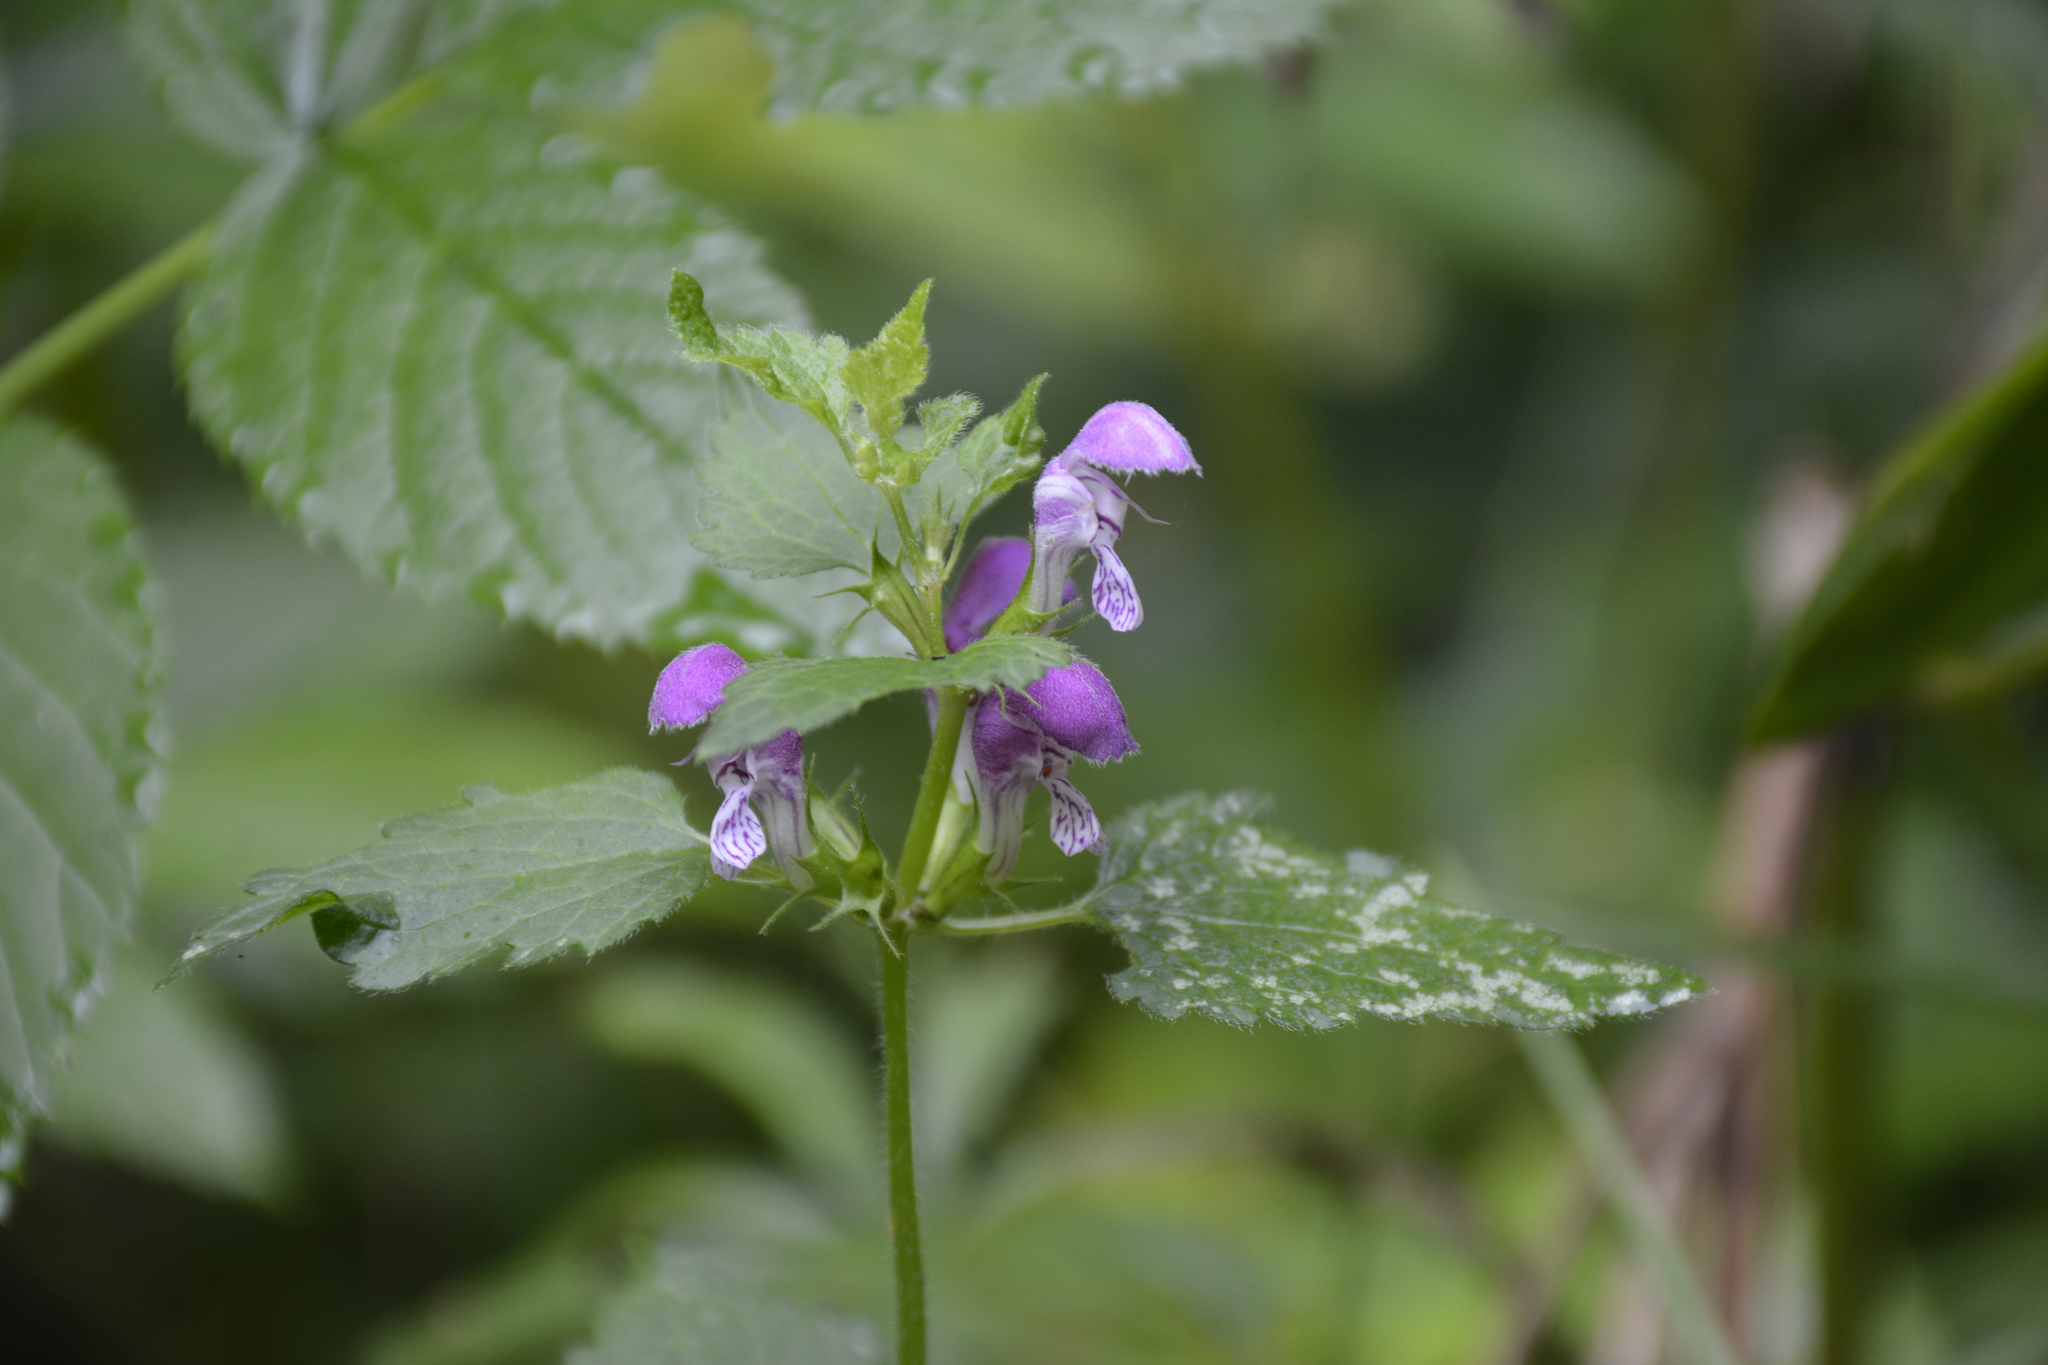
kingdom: Plantae
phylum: Tracheophyta
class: Magnoliopsida
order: Lamiales
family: Lamiaceae
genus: Lamium
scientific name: Lamium maculatum
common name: Spotted dead-nettle
